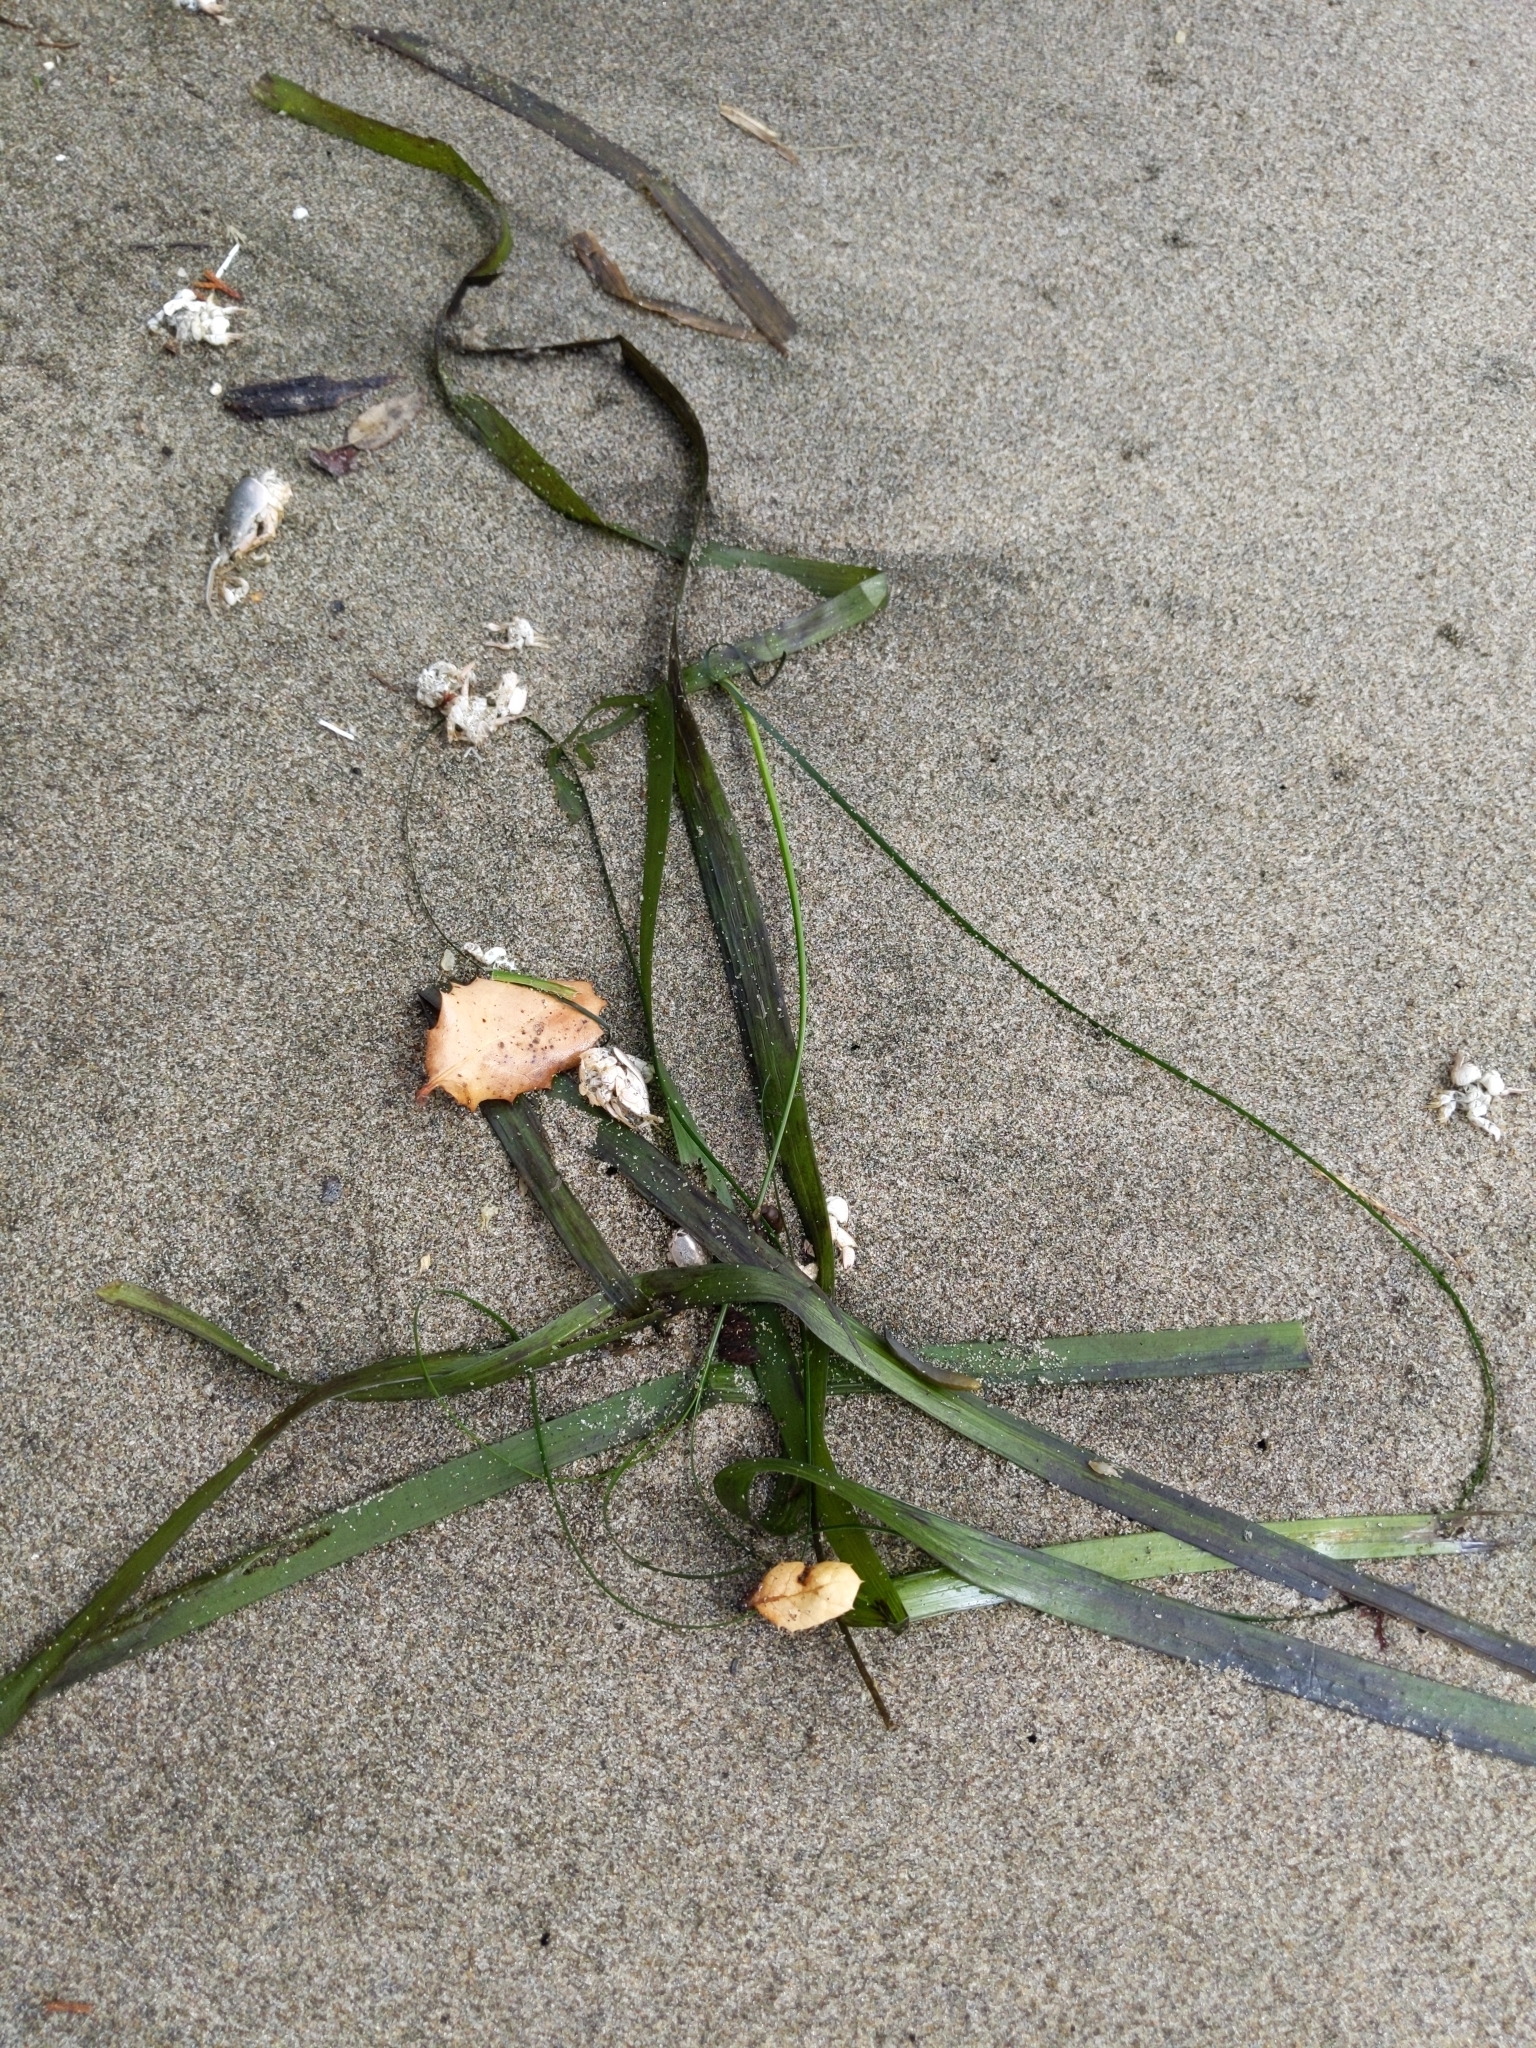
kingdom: Plantae
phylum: Tracheophyta
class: Liliopsida
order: Alismatales
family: Zosteraceae
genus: Zostera
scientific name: Zostera marina
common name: Eelgrass
